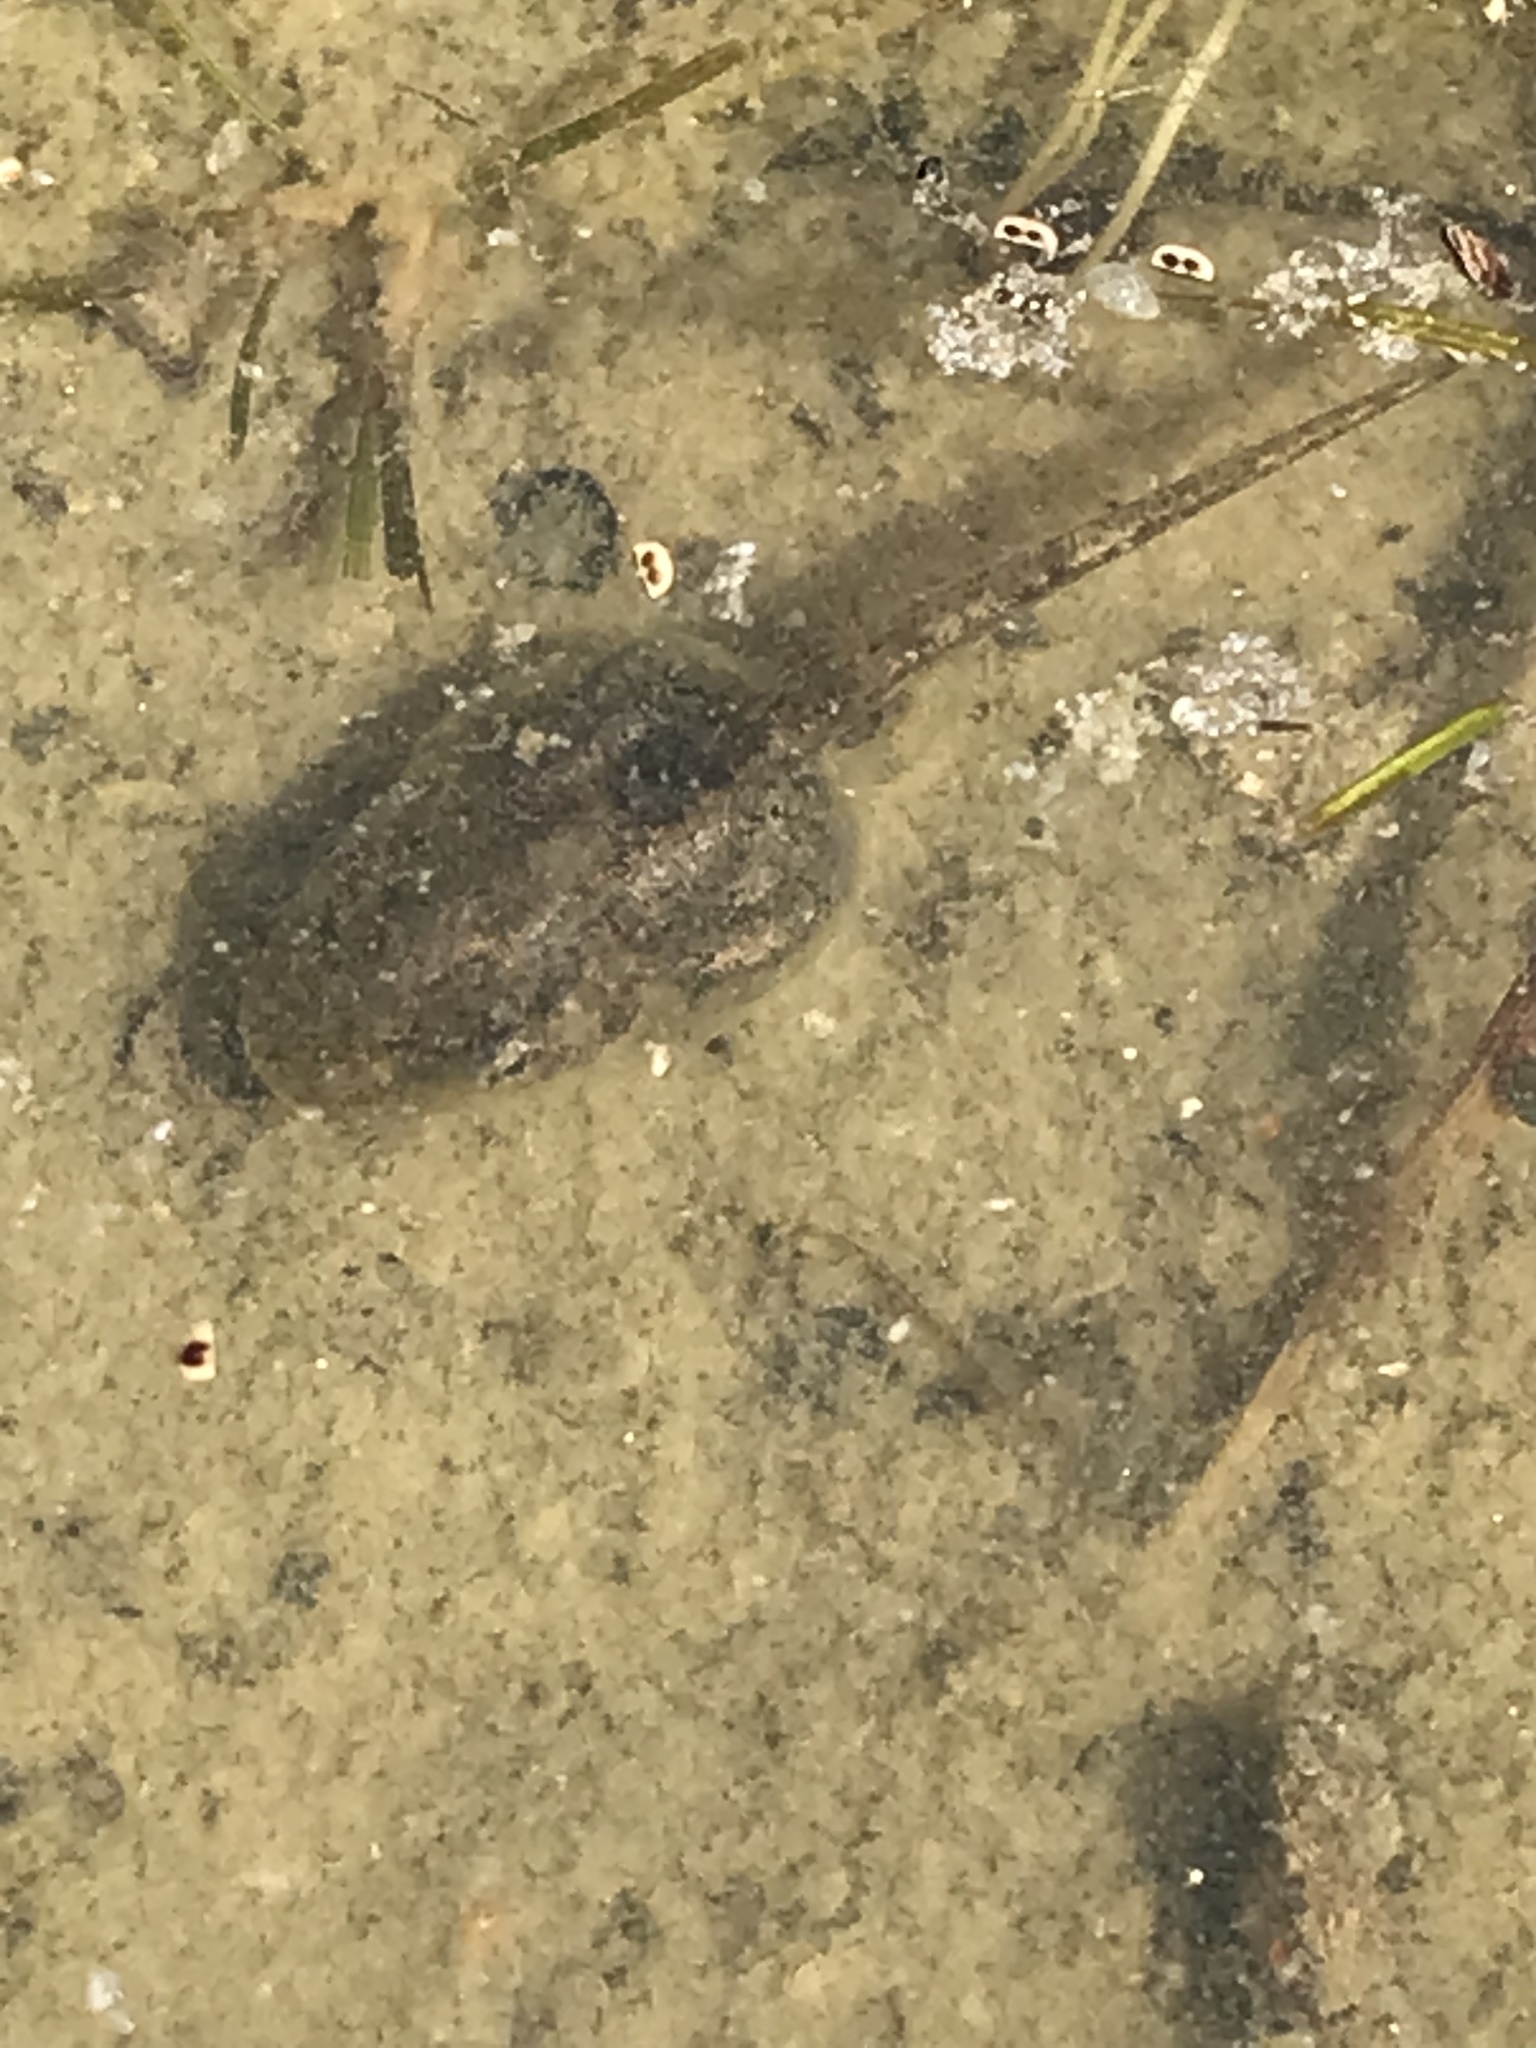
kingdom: Animalia
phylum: Chordata
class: Amphibia
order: Anura
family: Hylidae
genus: Pseudacris
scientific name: Pseudacris regilla
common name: Pacific chorus frog
